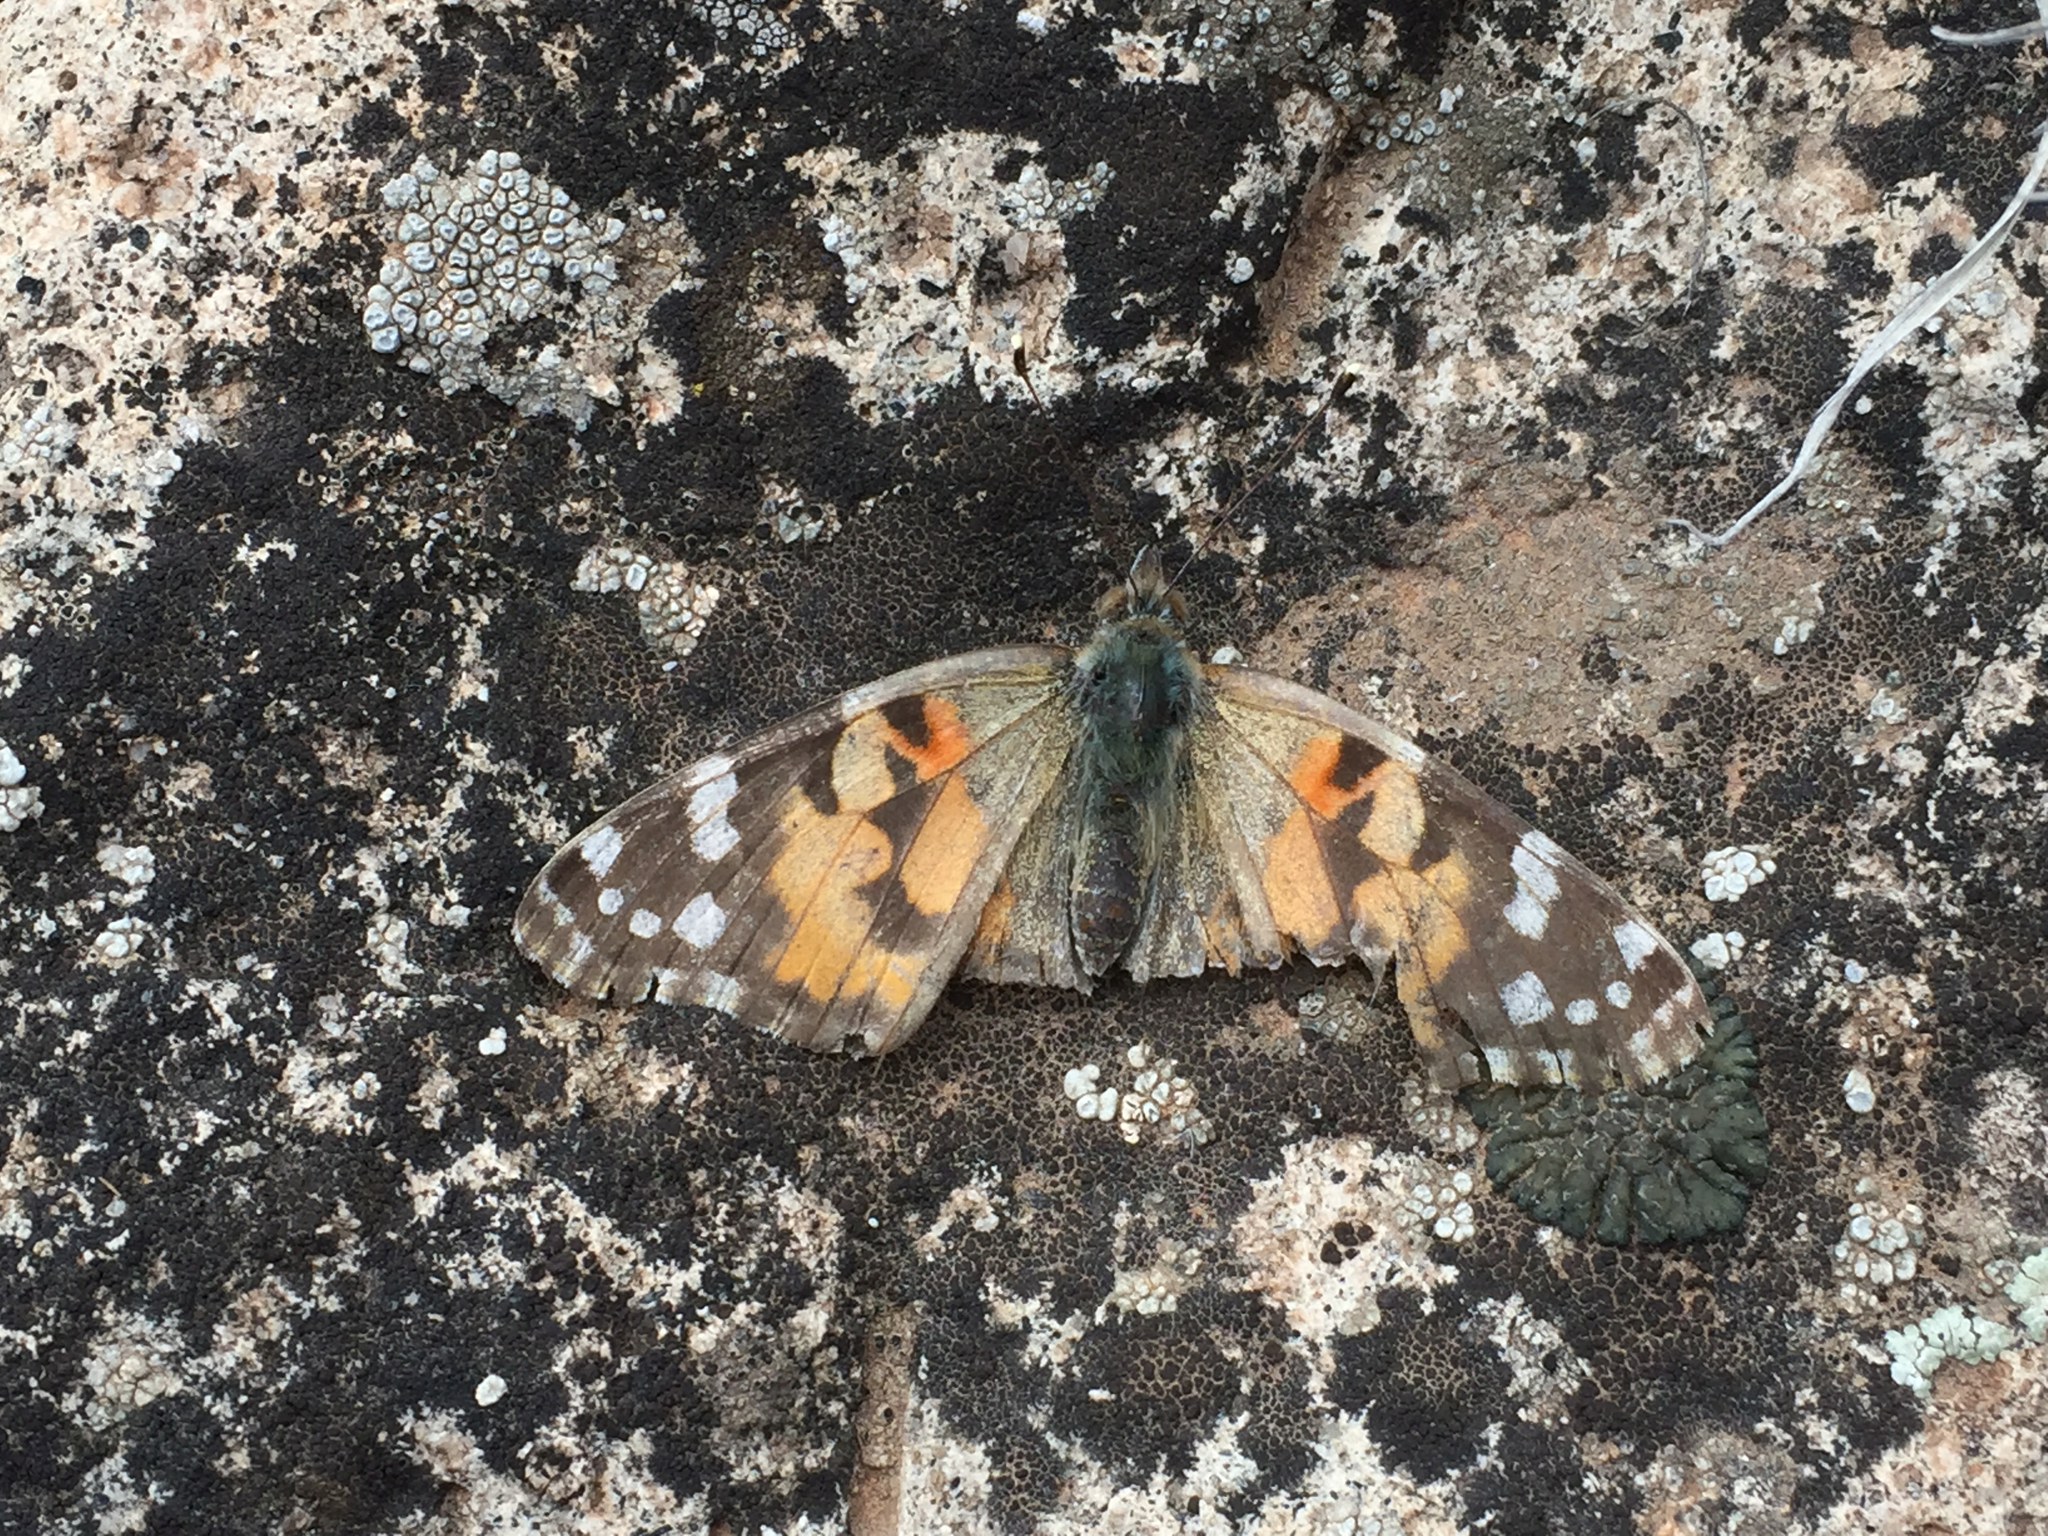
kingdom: Animalia
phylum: Arthropoda
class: Insecta
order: Lepidoptera
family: Nymphalidae
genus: Vanessa
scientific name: Vanessa cardui
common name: Painted lady
